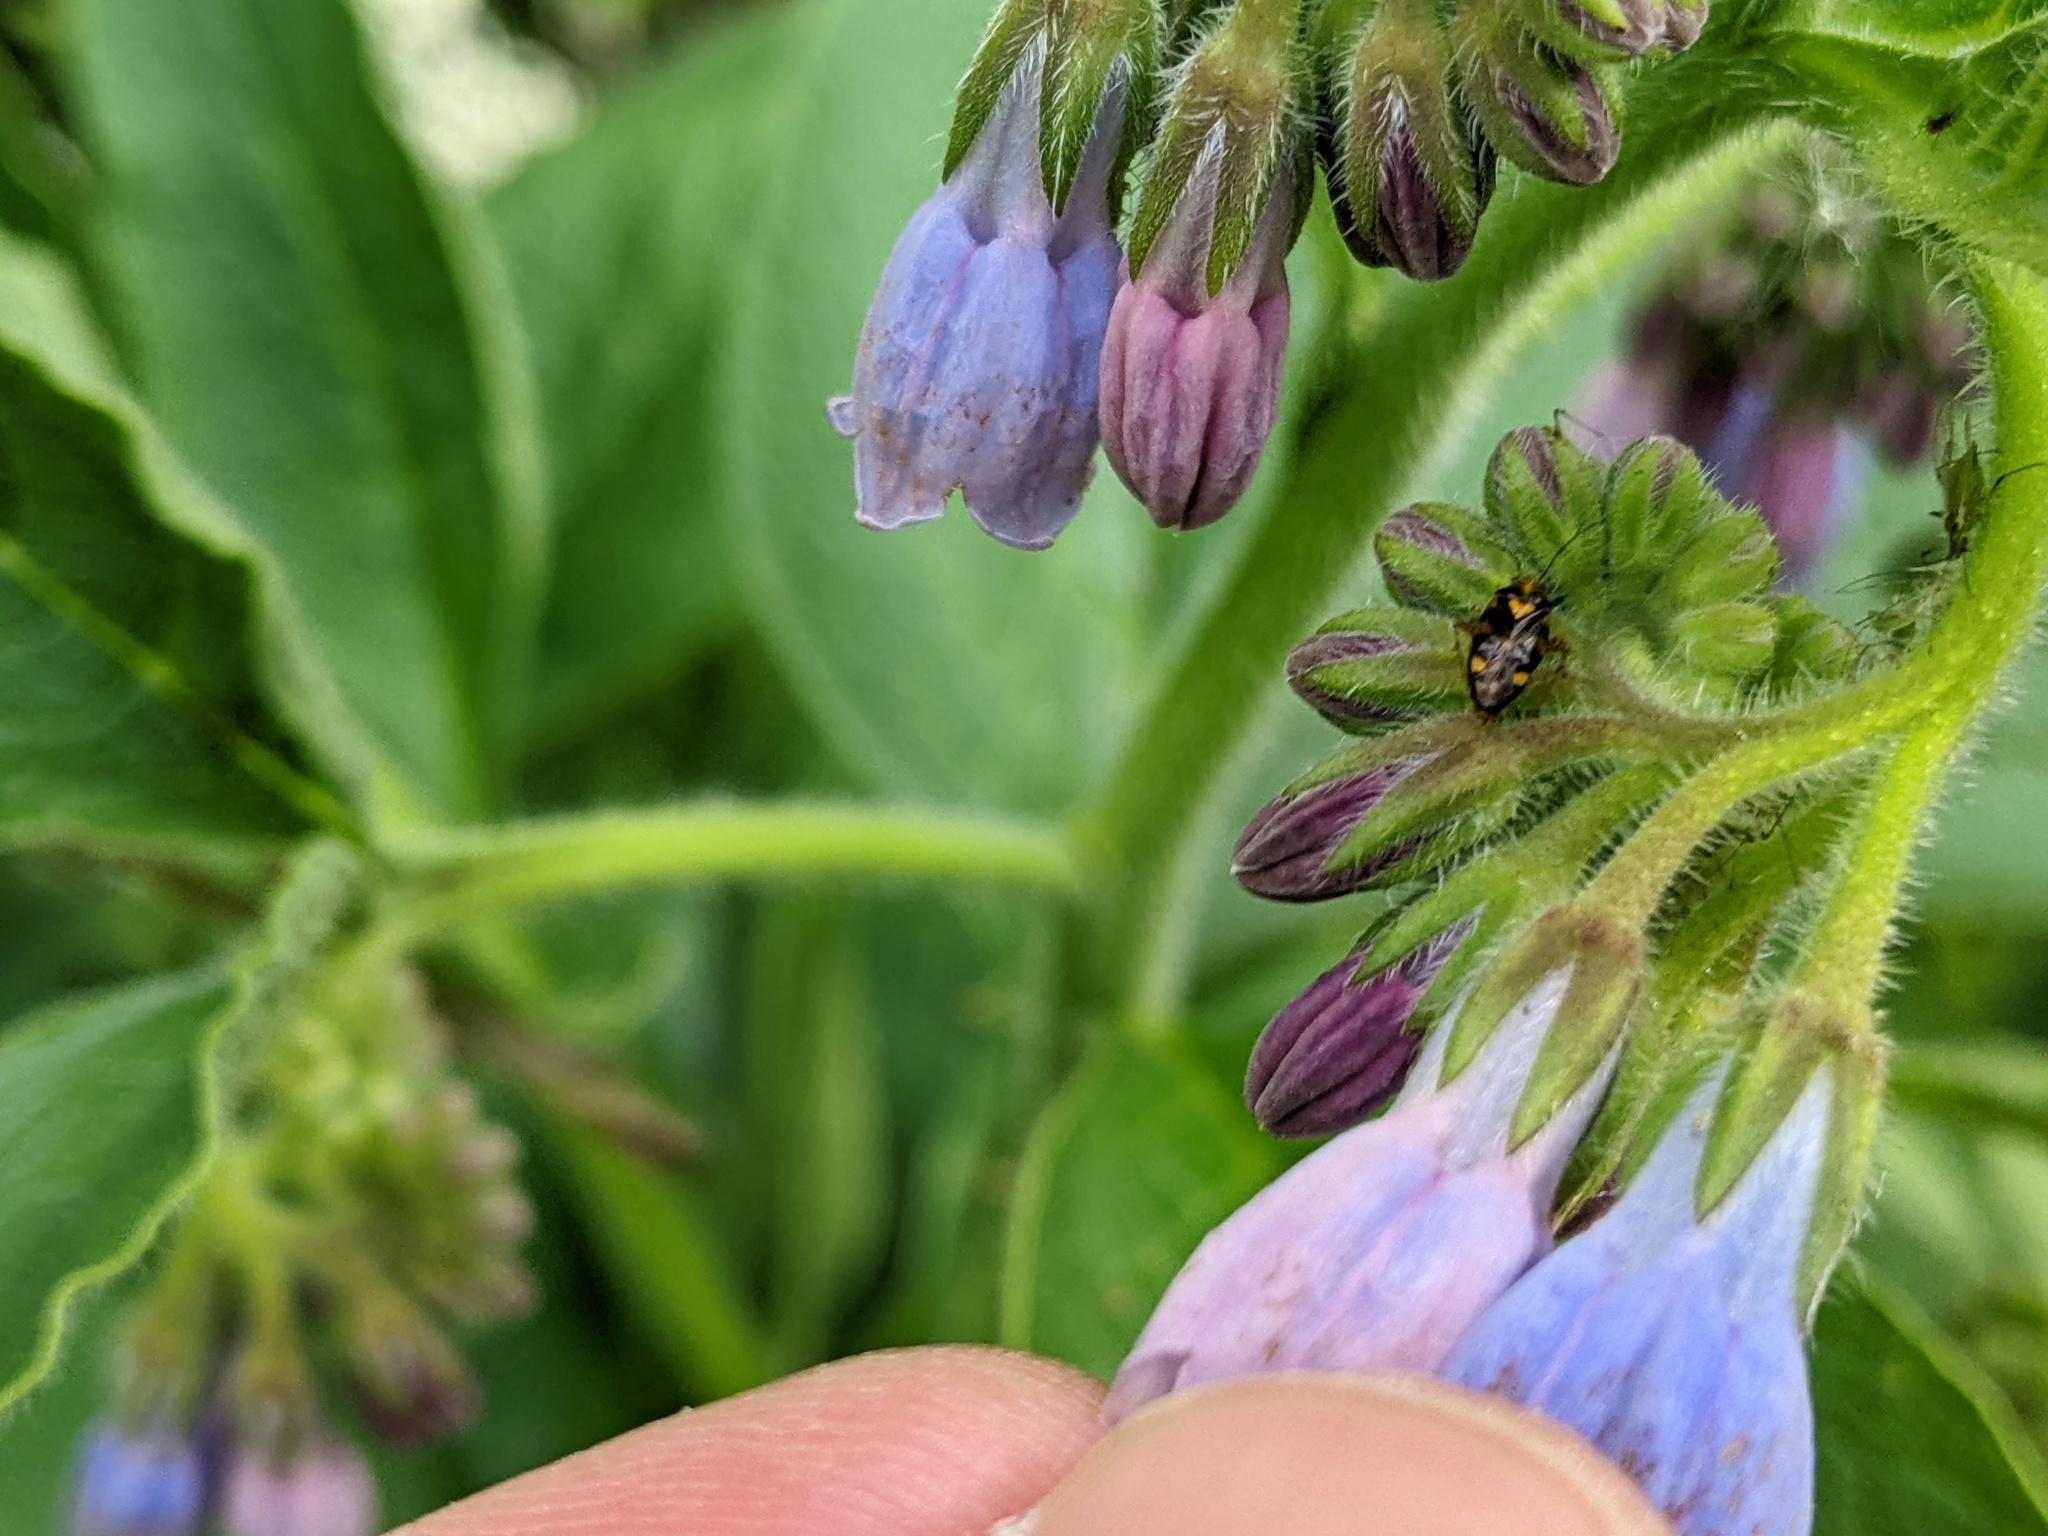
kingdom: Animalia
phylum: Arthropoda
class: Insecta
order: Hemiptera
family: Miridae
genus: Liocoris
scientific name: Liocoris tripustulatus
